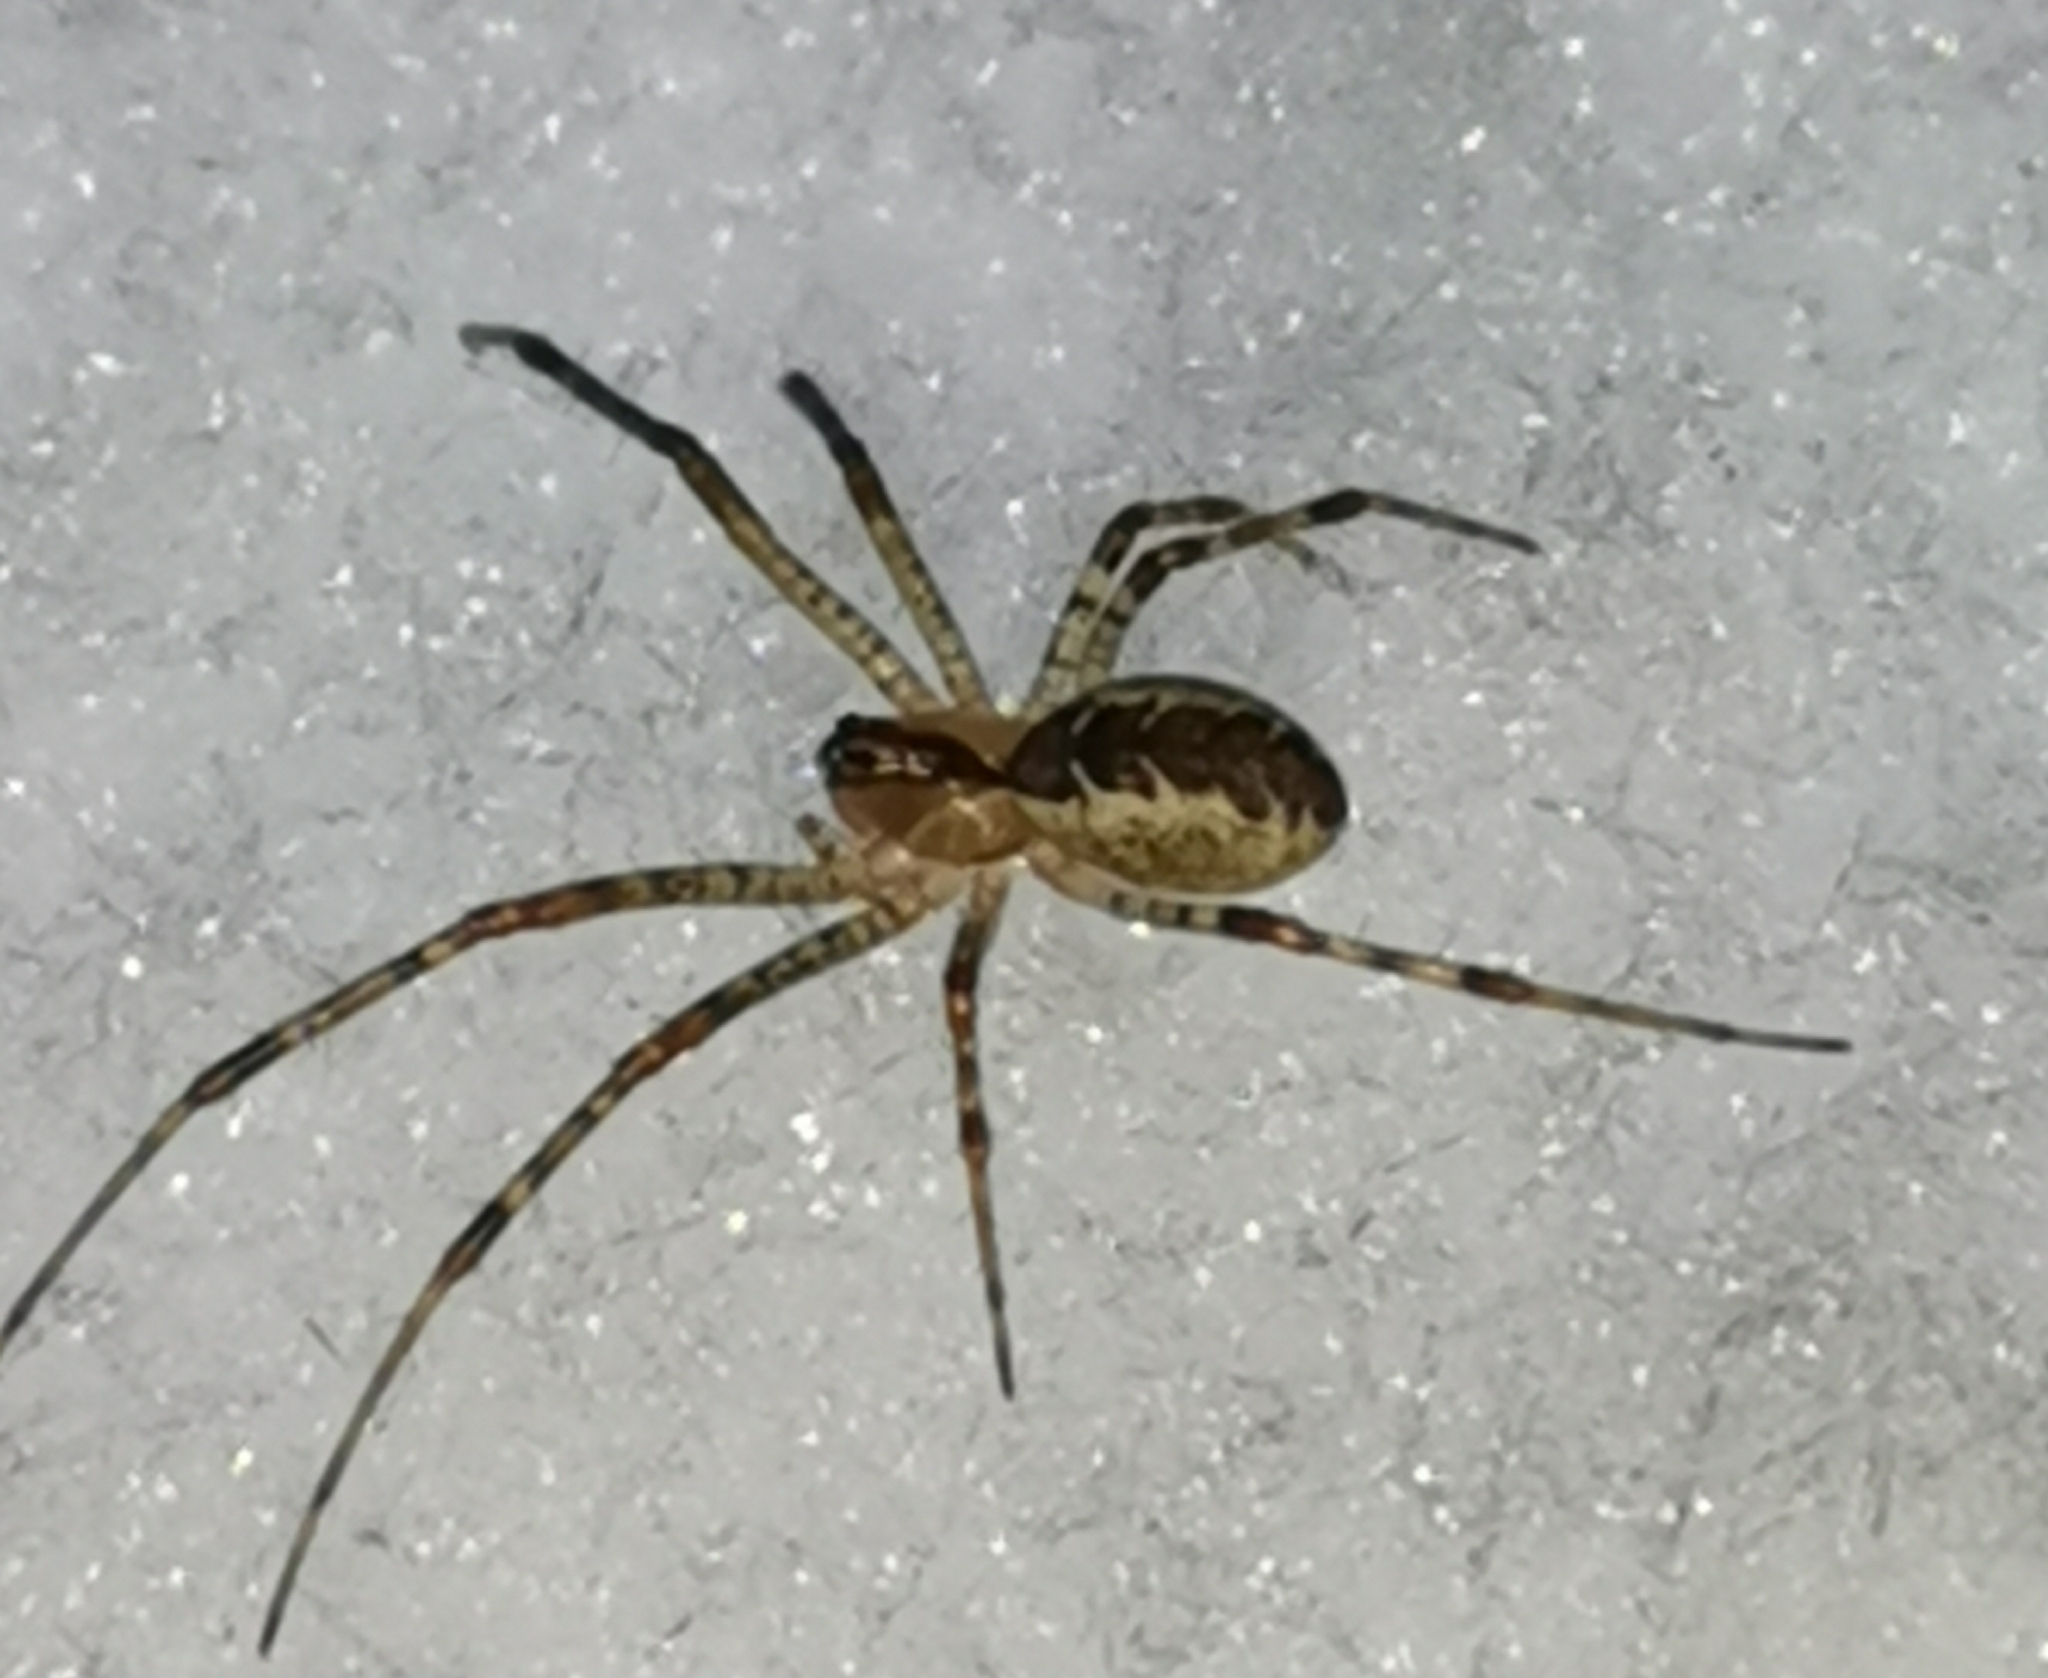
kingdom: Animalia
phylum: Arthropoda
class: Arachnida
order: Araneae
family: Linyphiidae
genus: Pityohyphantes
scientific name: Pityohyphantes phrygianus
